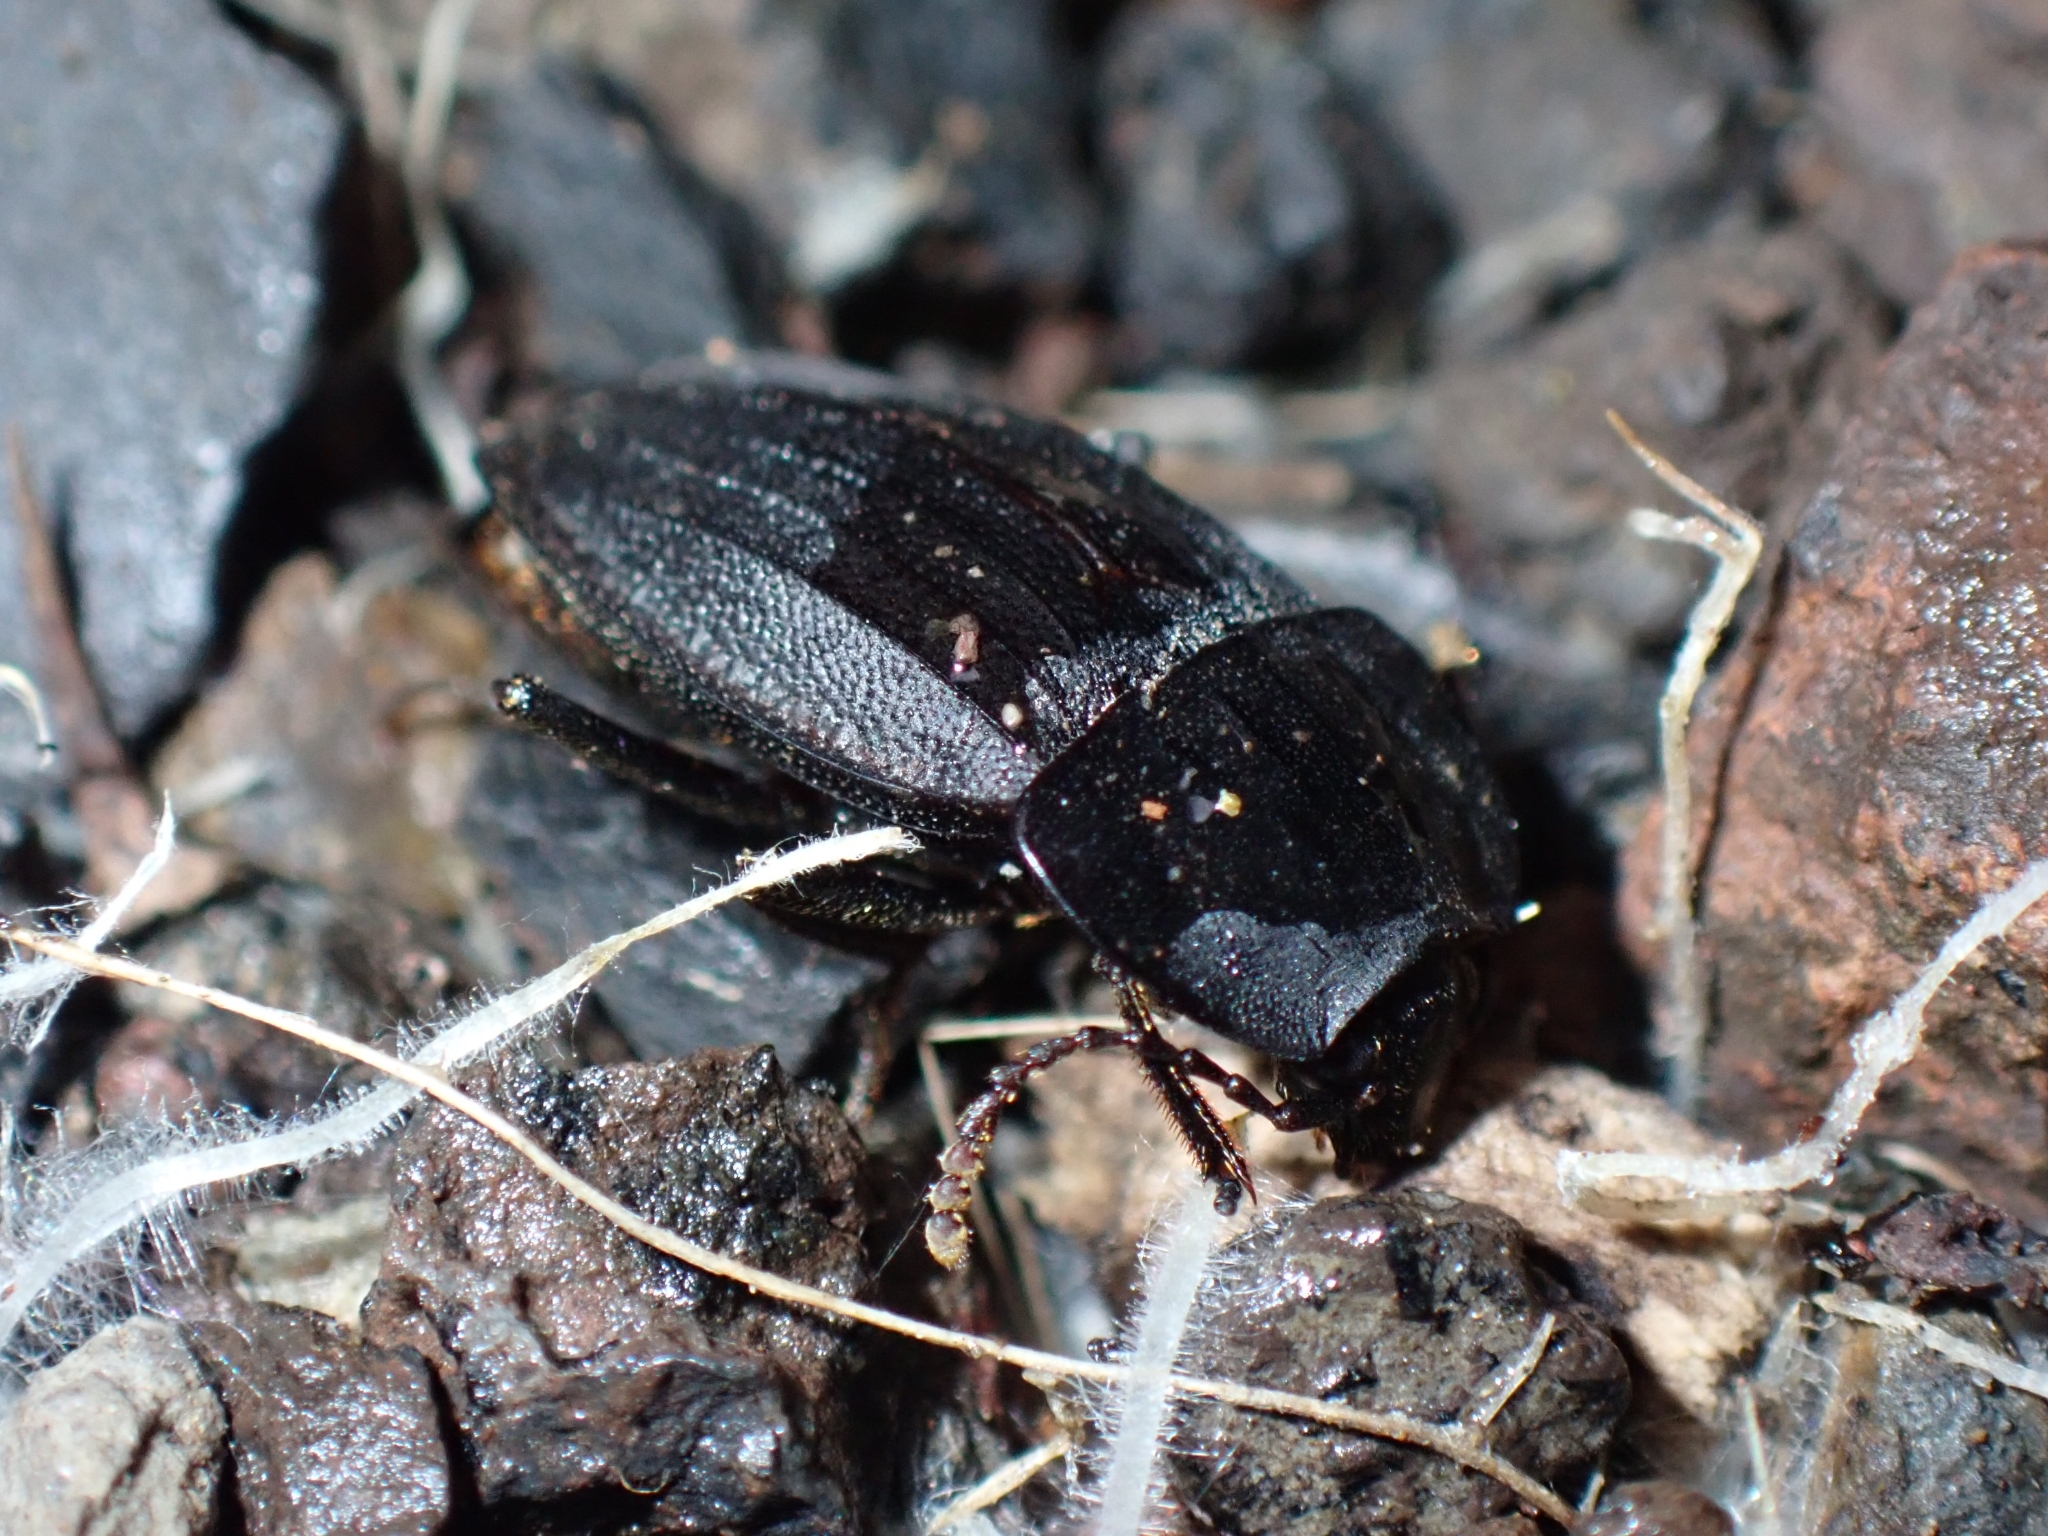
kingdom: Animalia
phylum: Arthropoda
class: Insecta
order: Coleoptera
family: Staphylinidae
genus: Heterotemna
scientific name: Heterotemna figurata
